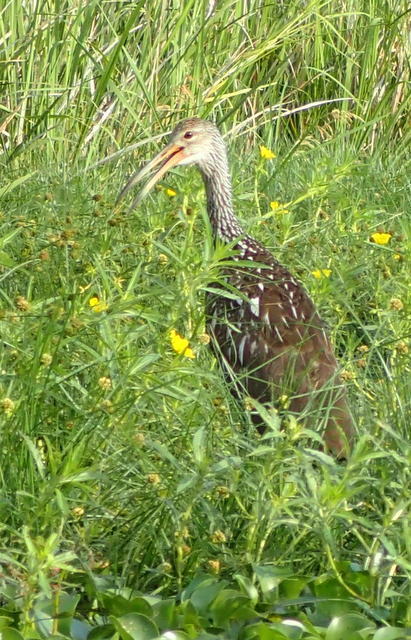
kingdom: Animalia
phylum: Chordata
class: Aves
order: Gruiformes
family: Aramidae
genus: Aramus
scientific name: Aramus guarauna
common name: Limpkin
